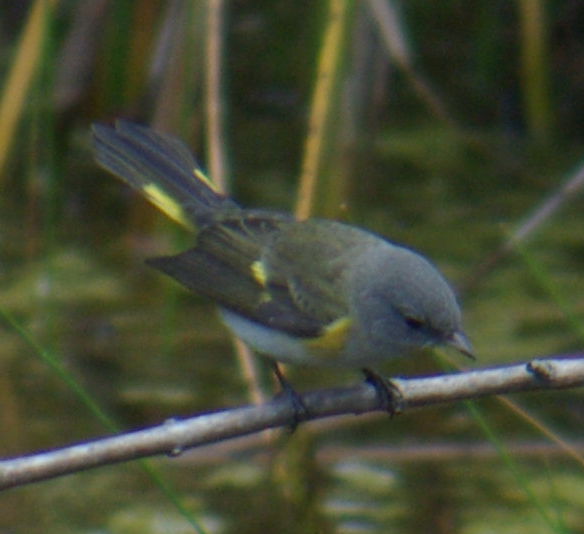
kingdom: Animalia
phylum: Chordata
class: Aves
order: Passeriformes
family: Parulidae
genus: Setophaga
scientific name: Setophaga ruticilla
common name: American redstart
